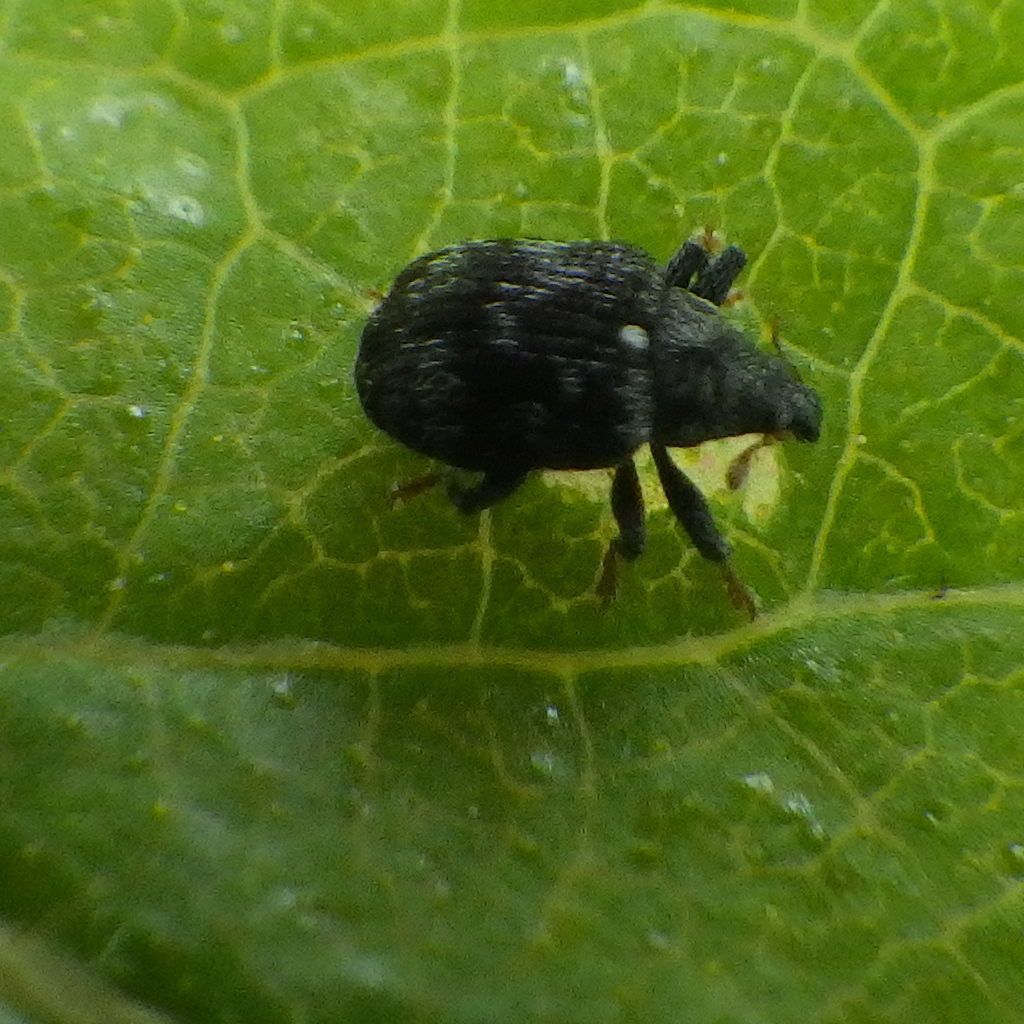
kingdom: Animalia
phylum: Arthropoda
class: Insecta
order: Coleoptera
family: Curculionidae
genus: Piazorhinus
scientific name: Piazorhinus scutellaris
